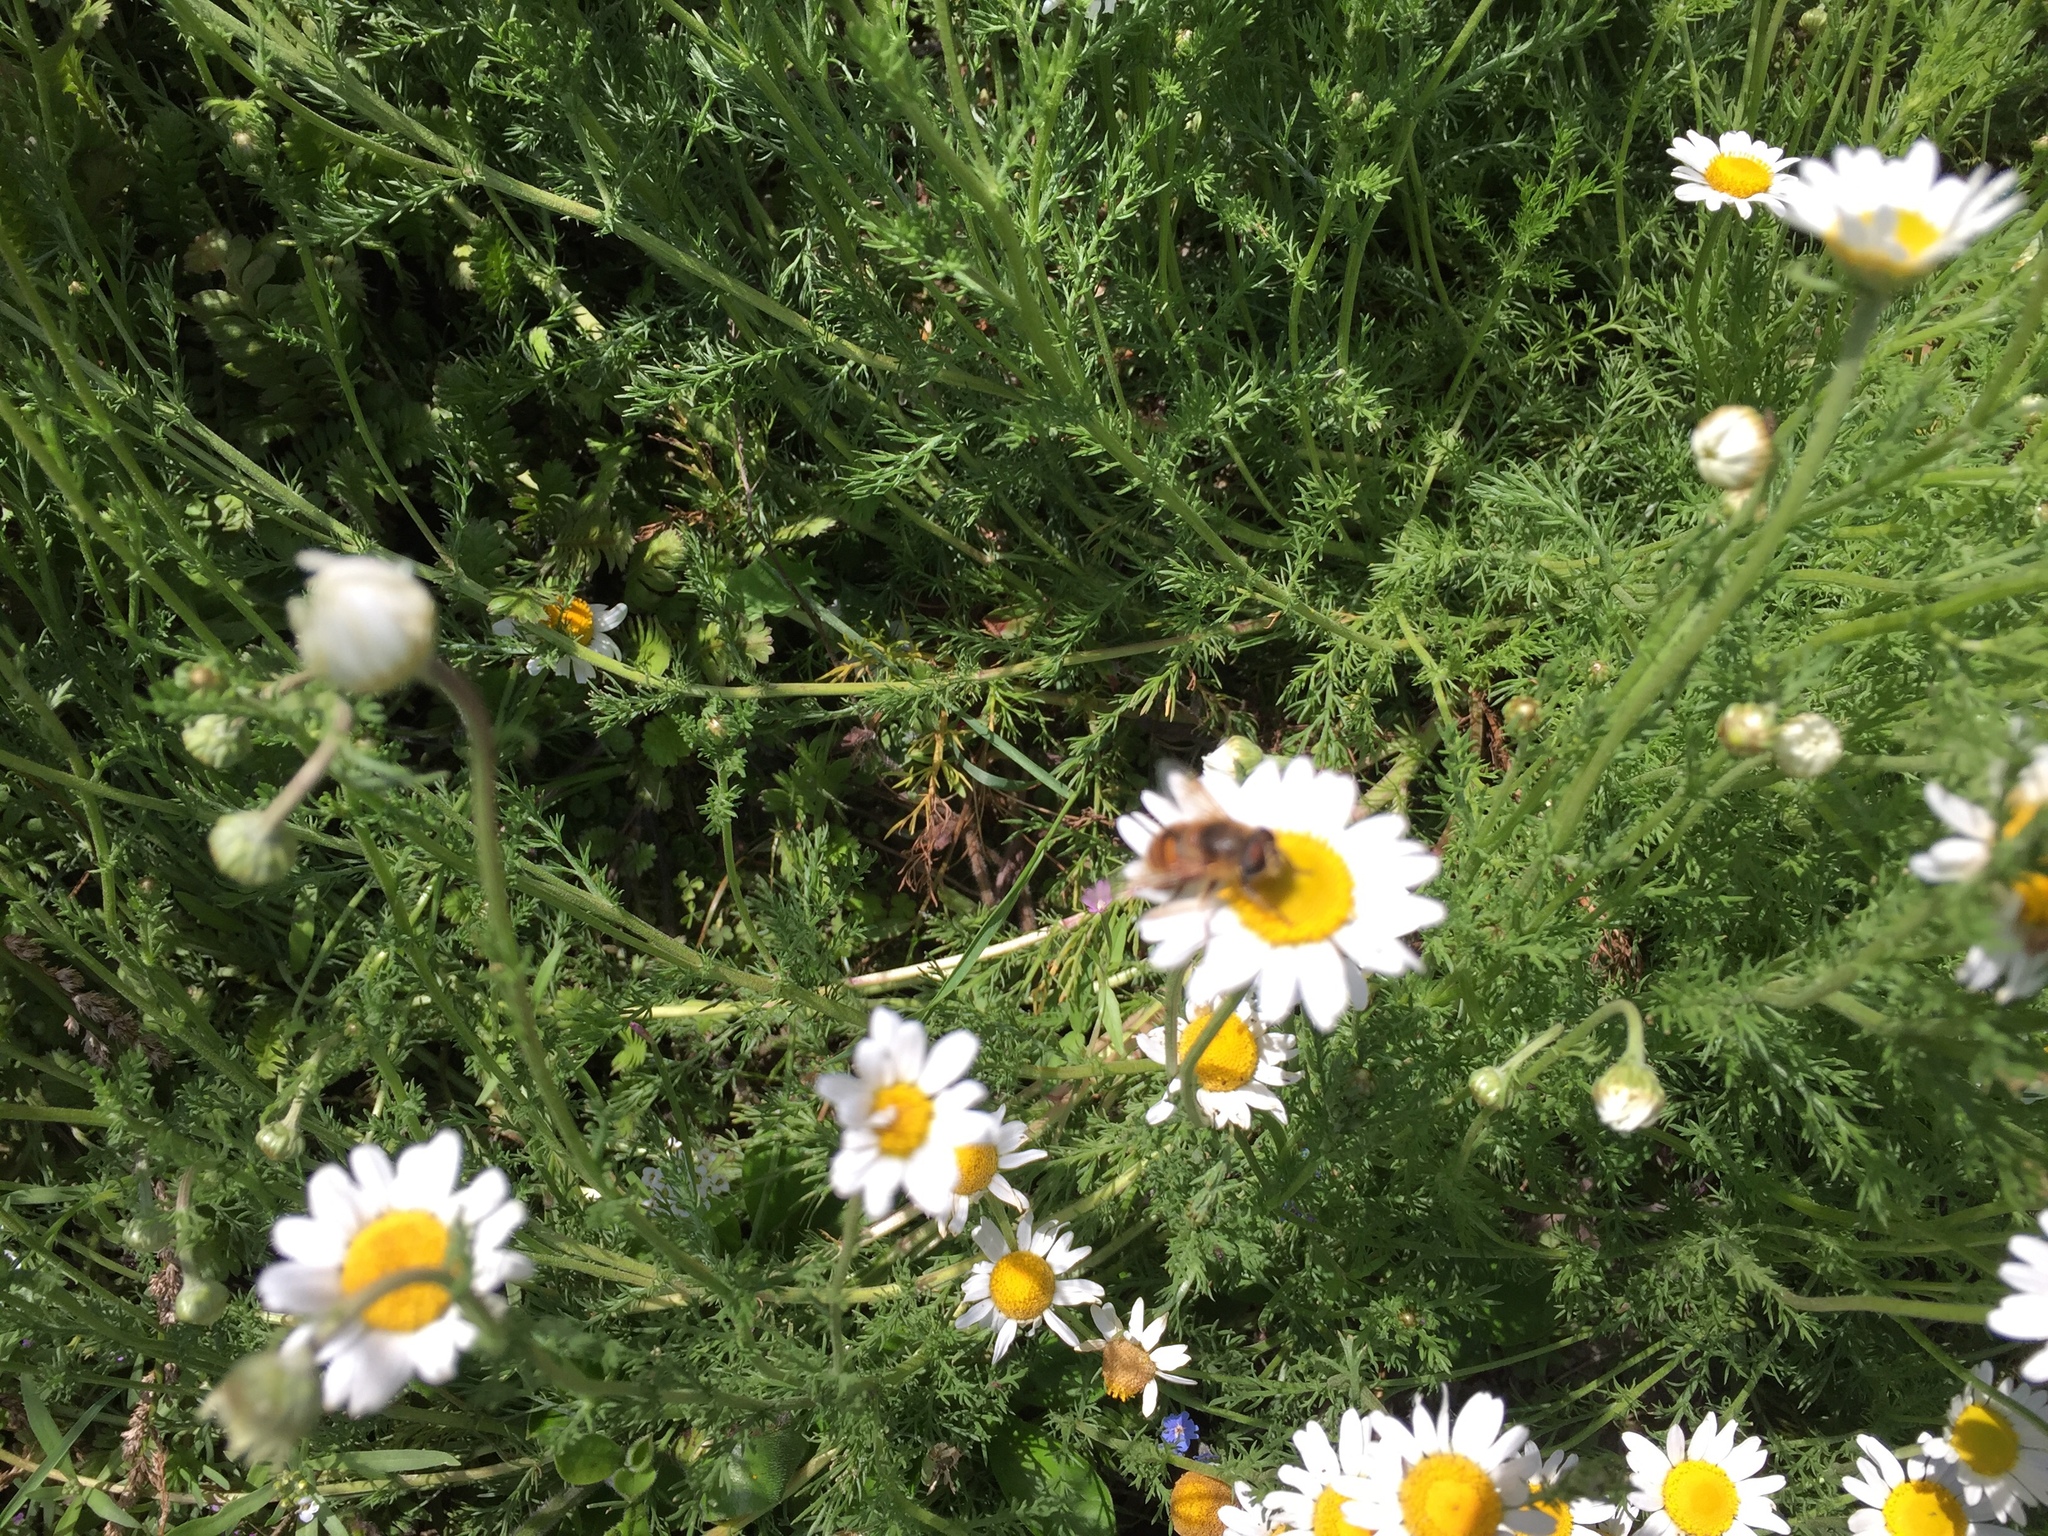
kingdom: Animalia
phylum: Arthropoda
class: Insecta
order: Diptera
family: Syrphidae
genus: Eristalis
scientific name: Eristalis tenax
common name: Drone fly
